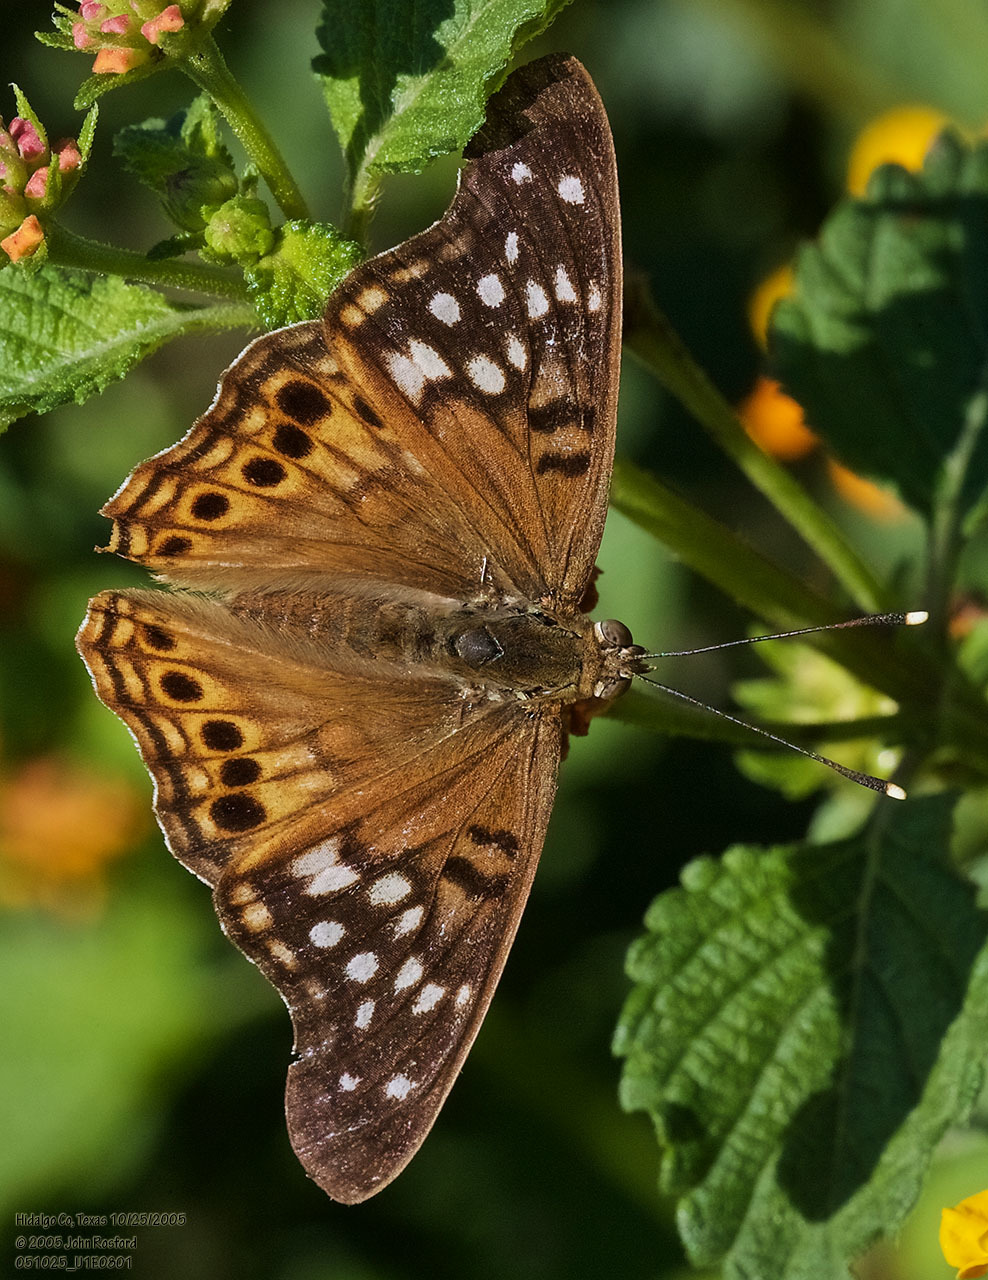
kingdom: Animalia
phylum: Arthropoda
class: Insecta
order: Lepidoptera
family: Nymphalidae
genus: Asterocampa
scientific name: Asterocampa clyton
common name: Tawny emperor
